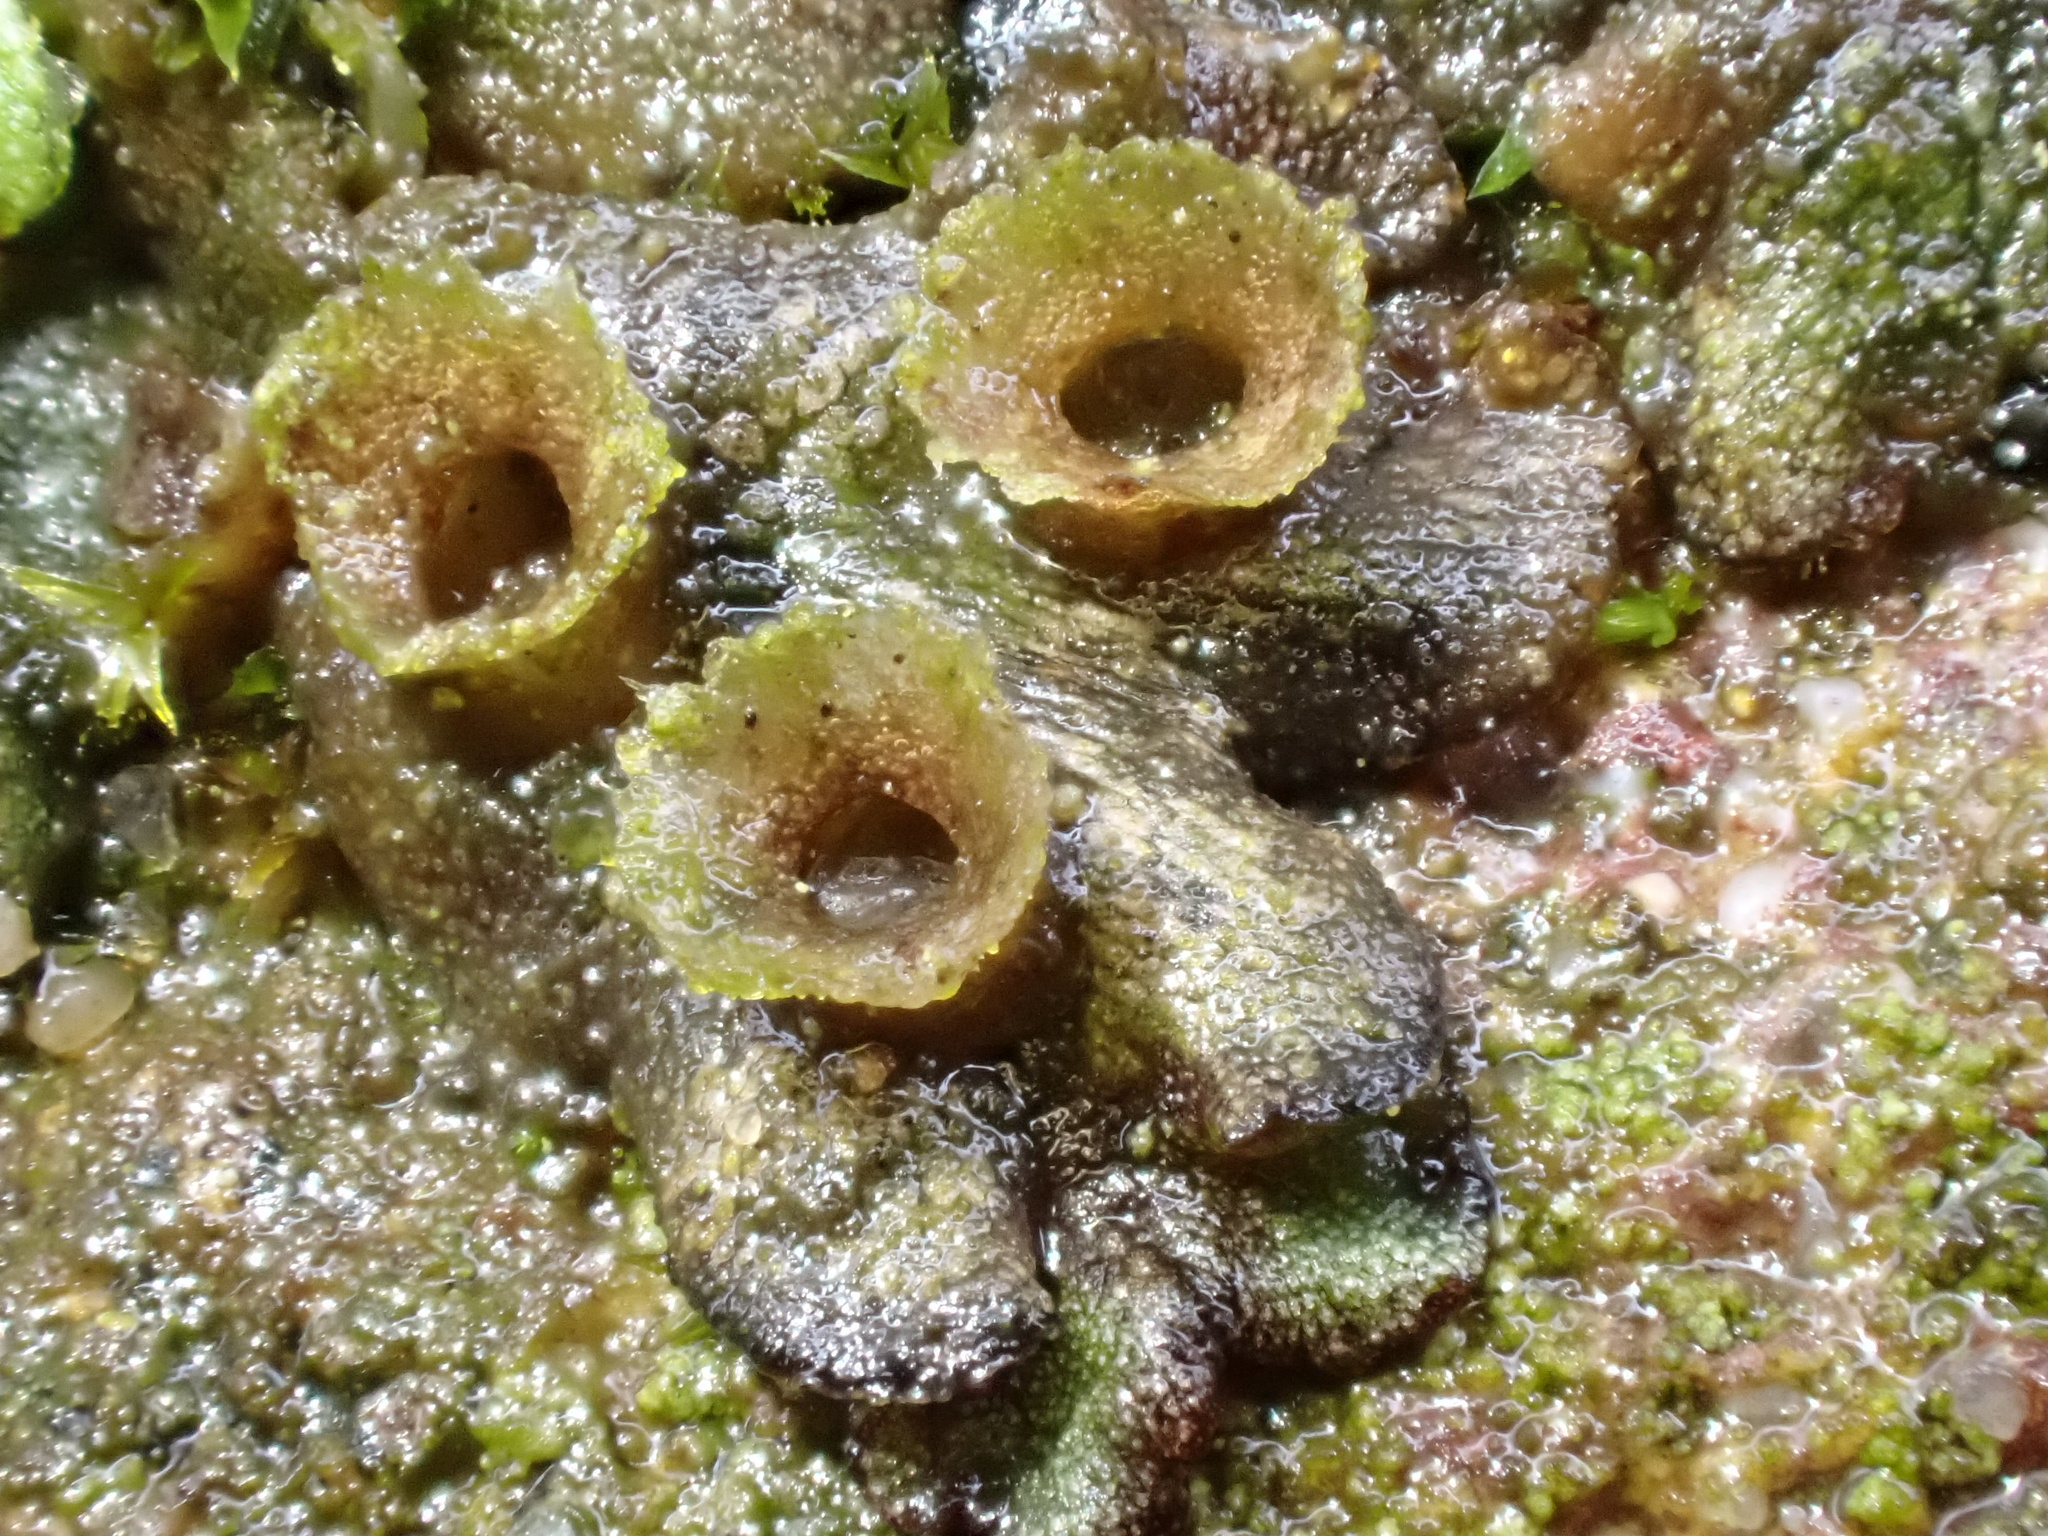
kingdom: Plantae
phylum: Marchantiophyta
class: Marchantiopsida
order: Marchantiales
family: Marchantiaceae
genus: Marchantia
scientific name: Marchantia polymorpha
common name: Common liverwort
